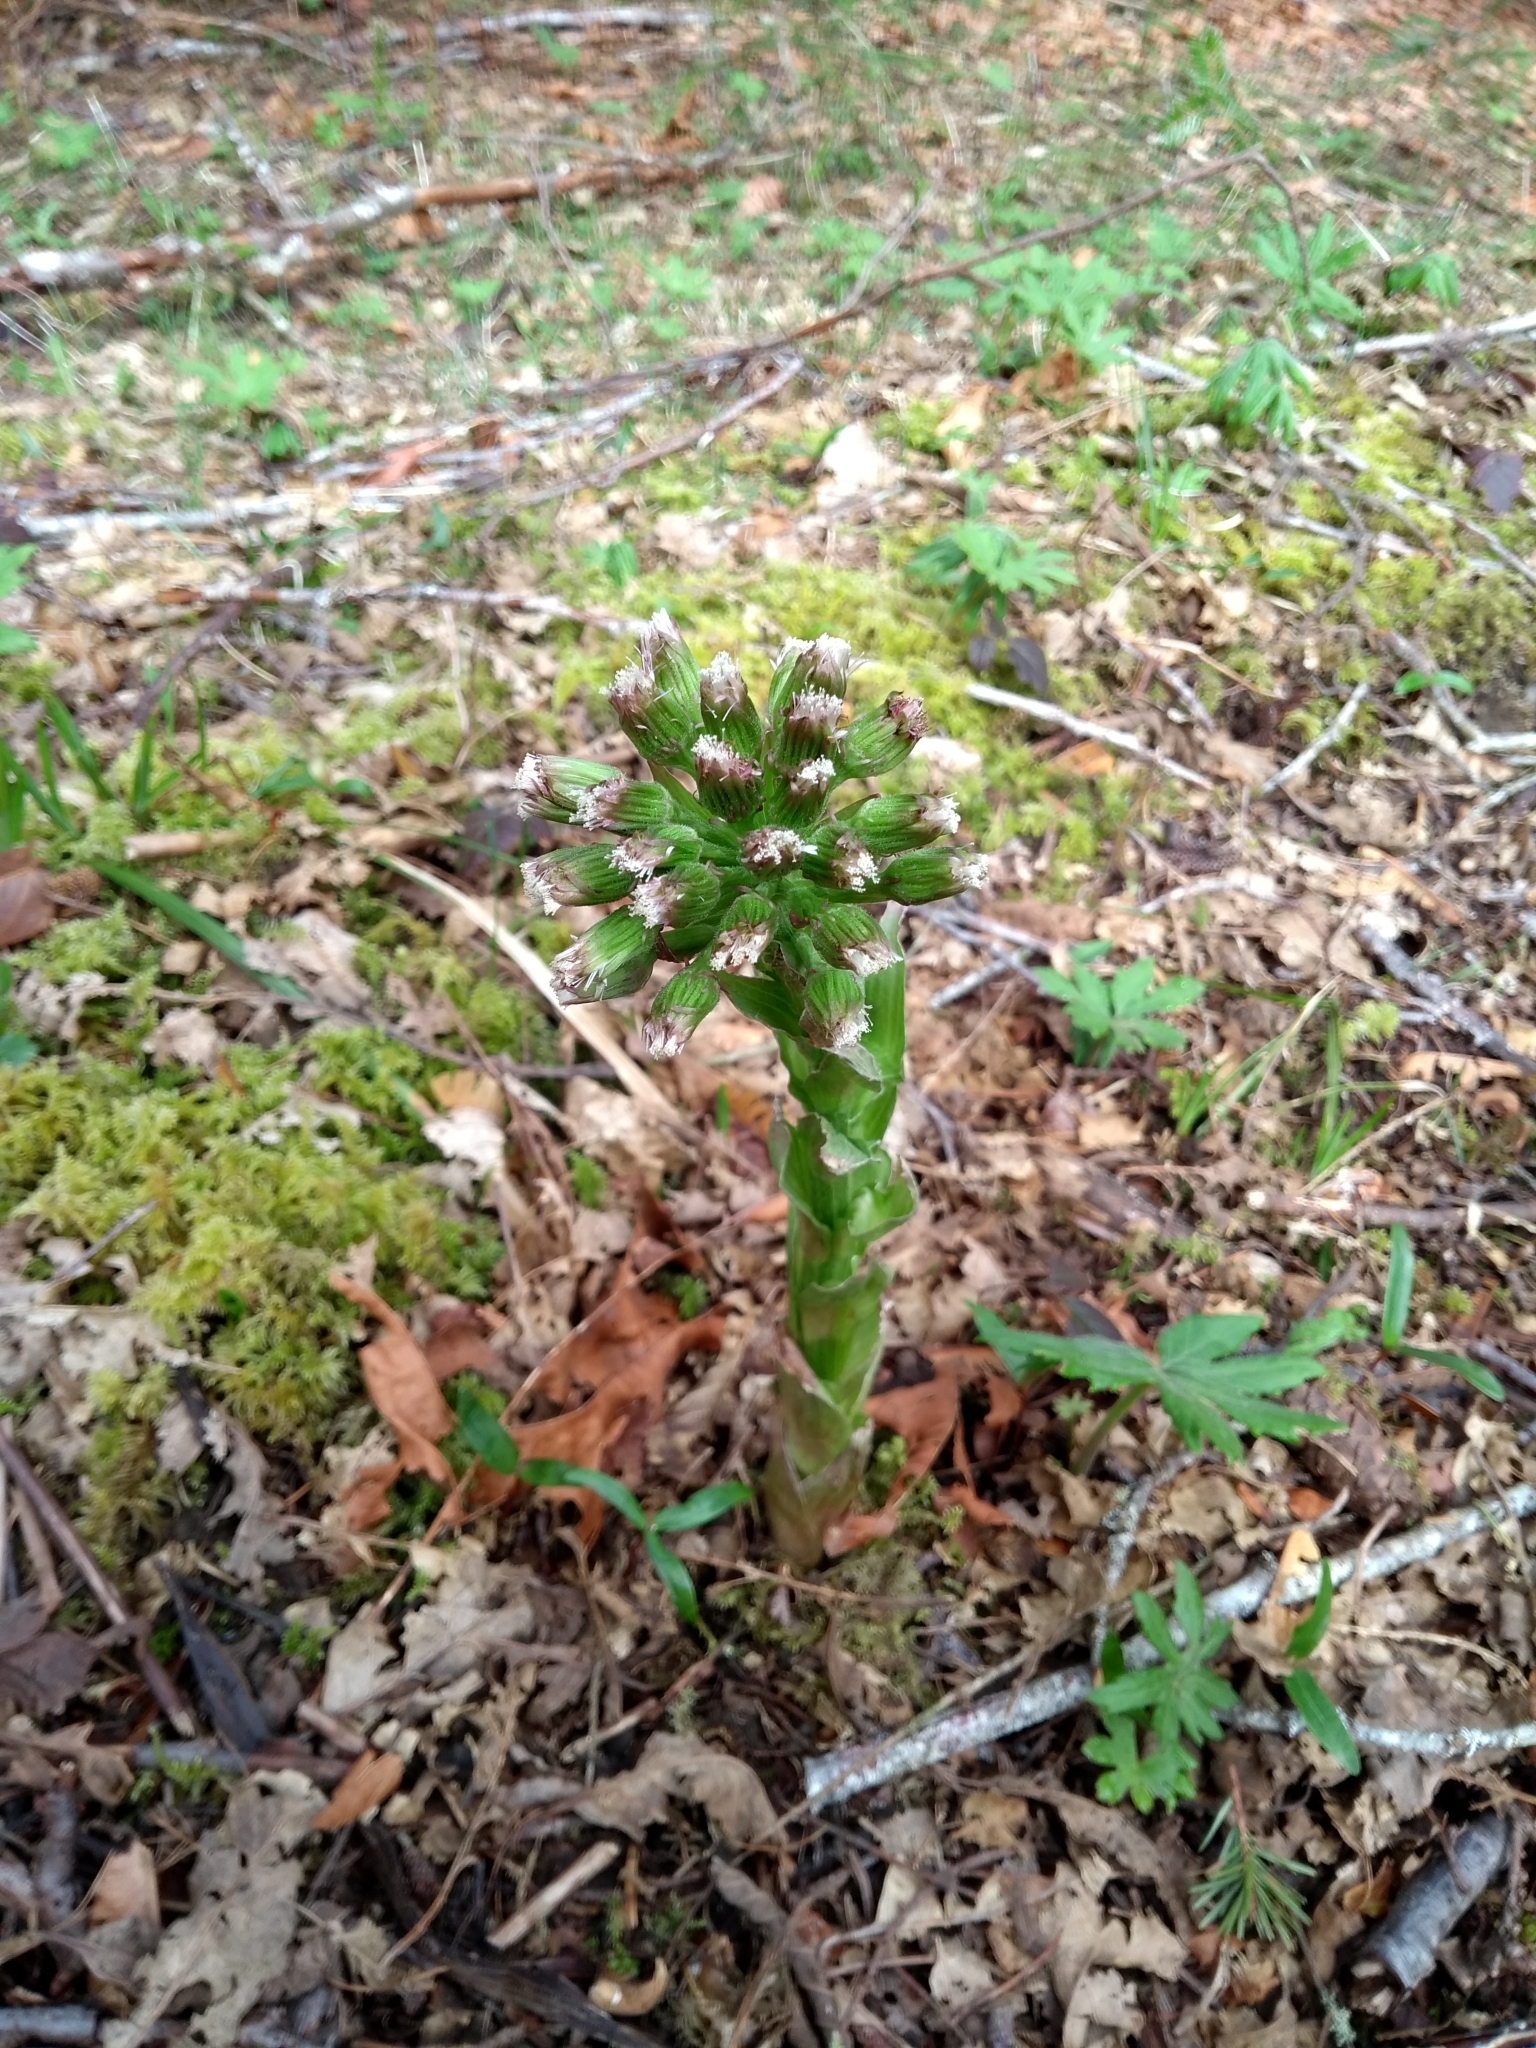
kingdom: Plantae
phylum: Tracheophyta
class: Magnoliopsida
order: Asterales
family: Asteraceae
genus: Petasites
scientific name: Petasites frigidus
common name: Arctic butterbur
